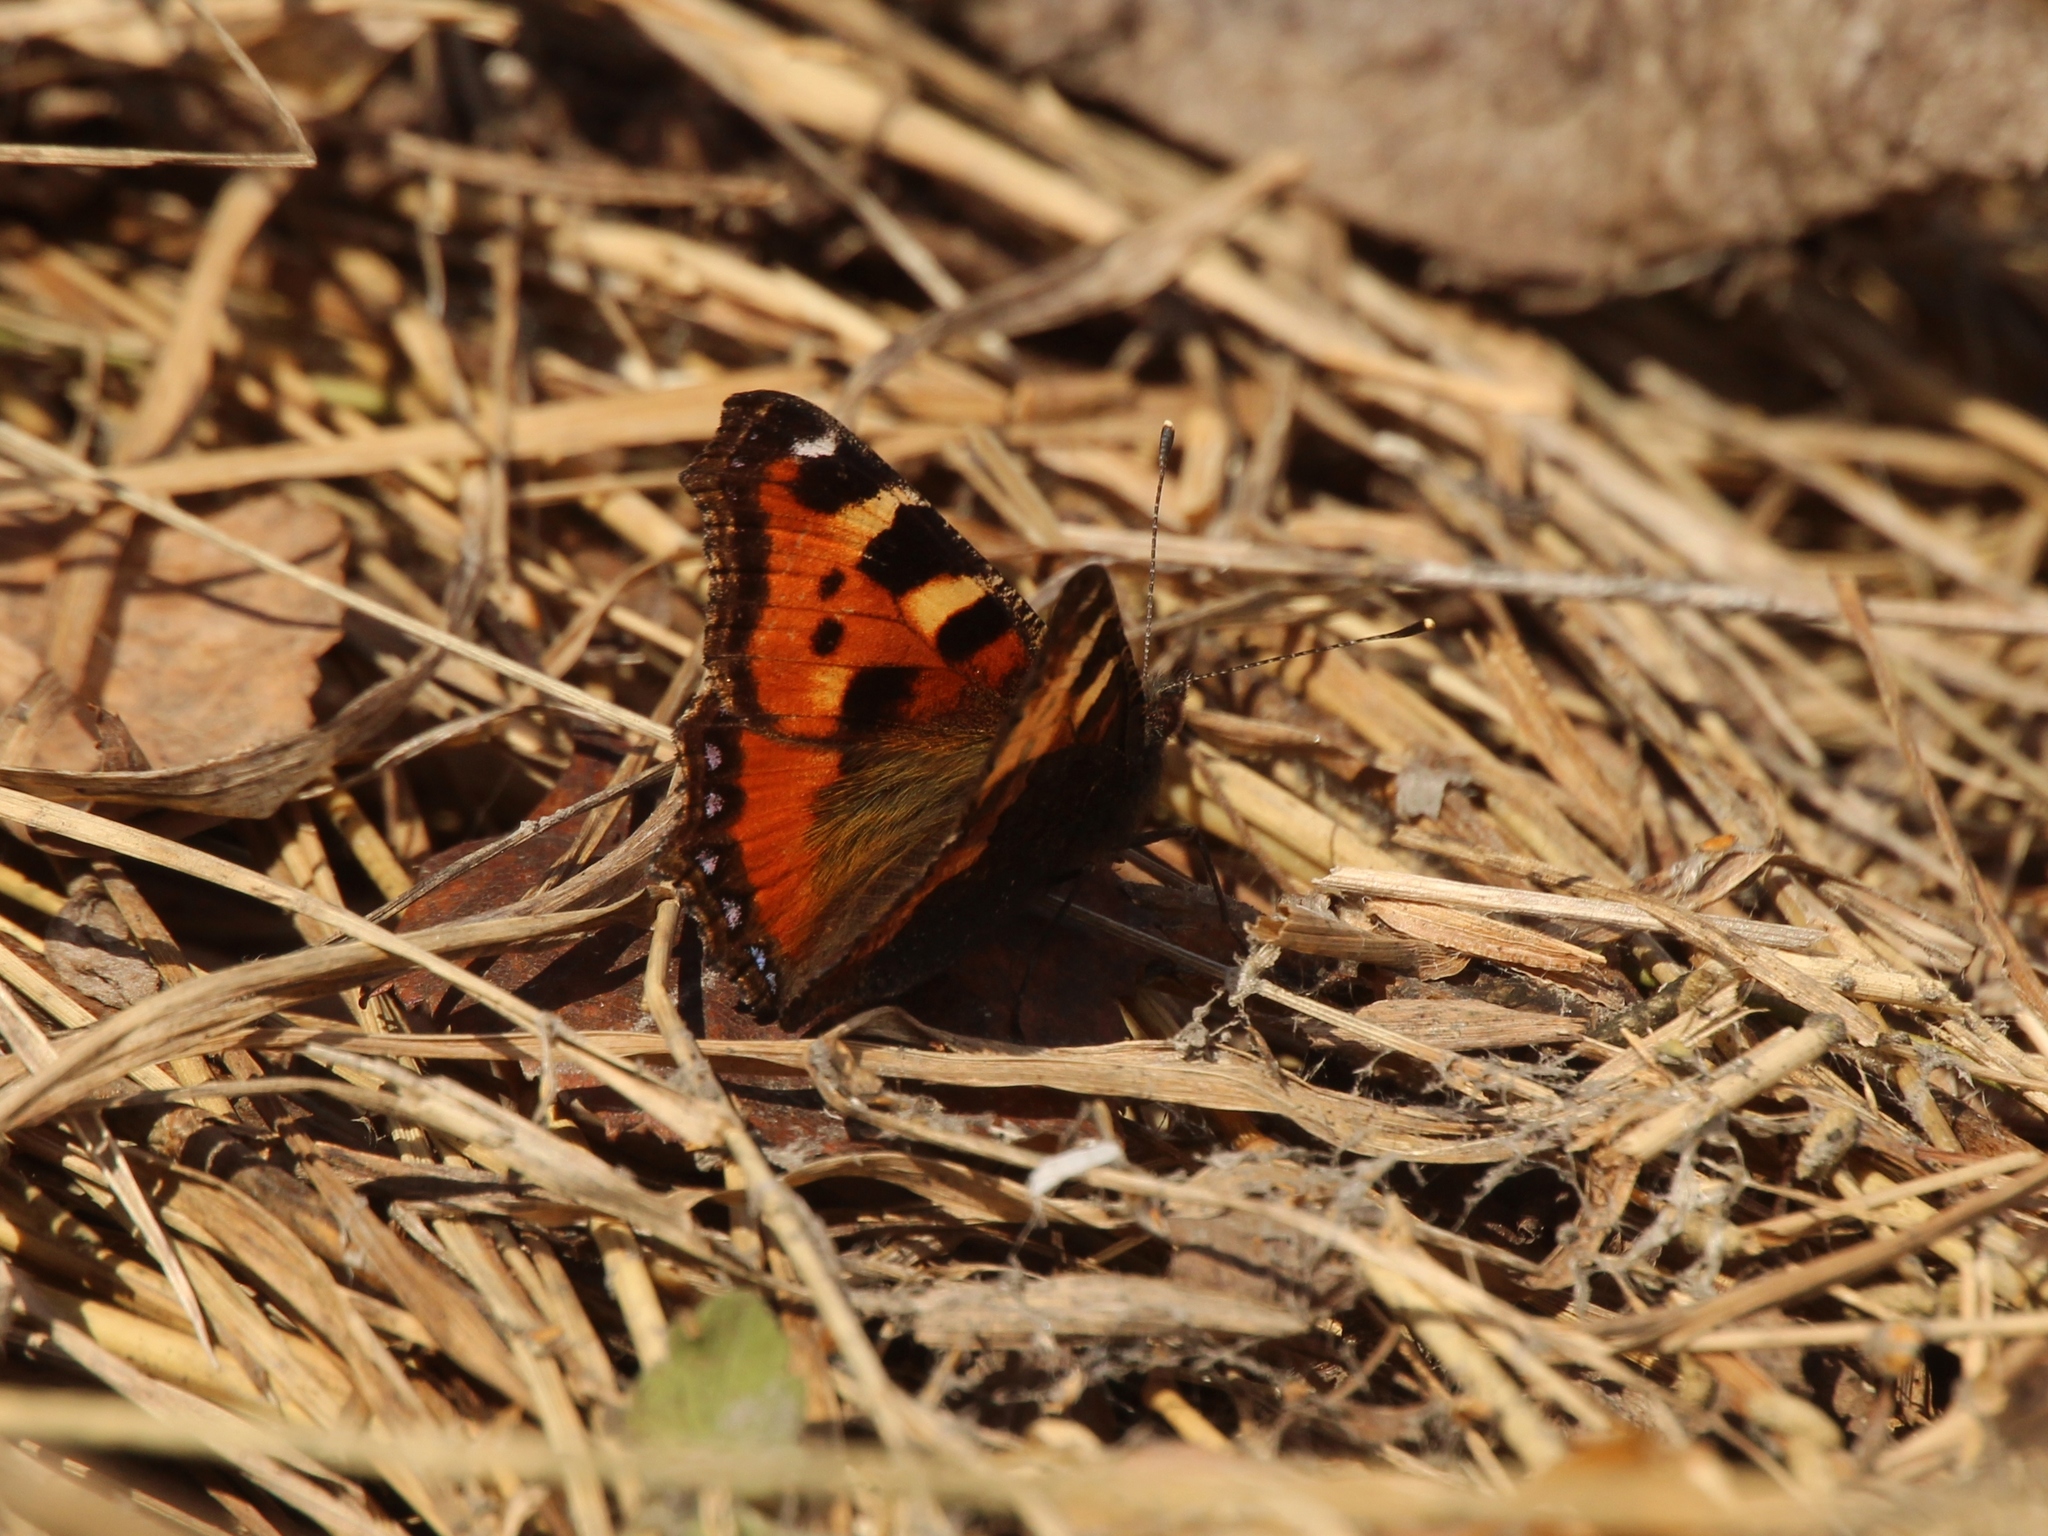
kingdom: Animalia
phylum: Arthropoda
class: Insecta
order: Lepidoptera
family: Nymphalidae
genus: Aglais
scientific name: Aglais urticae
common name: Small tortoiseshell
